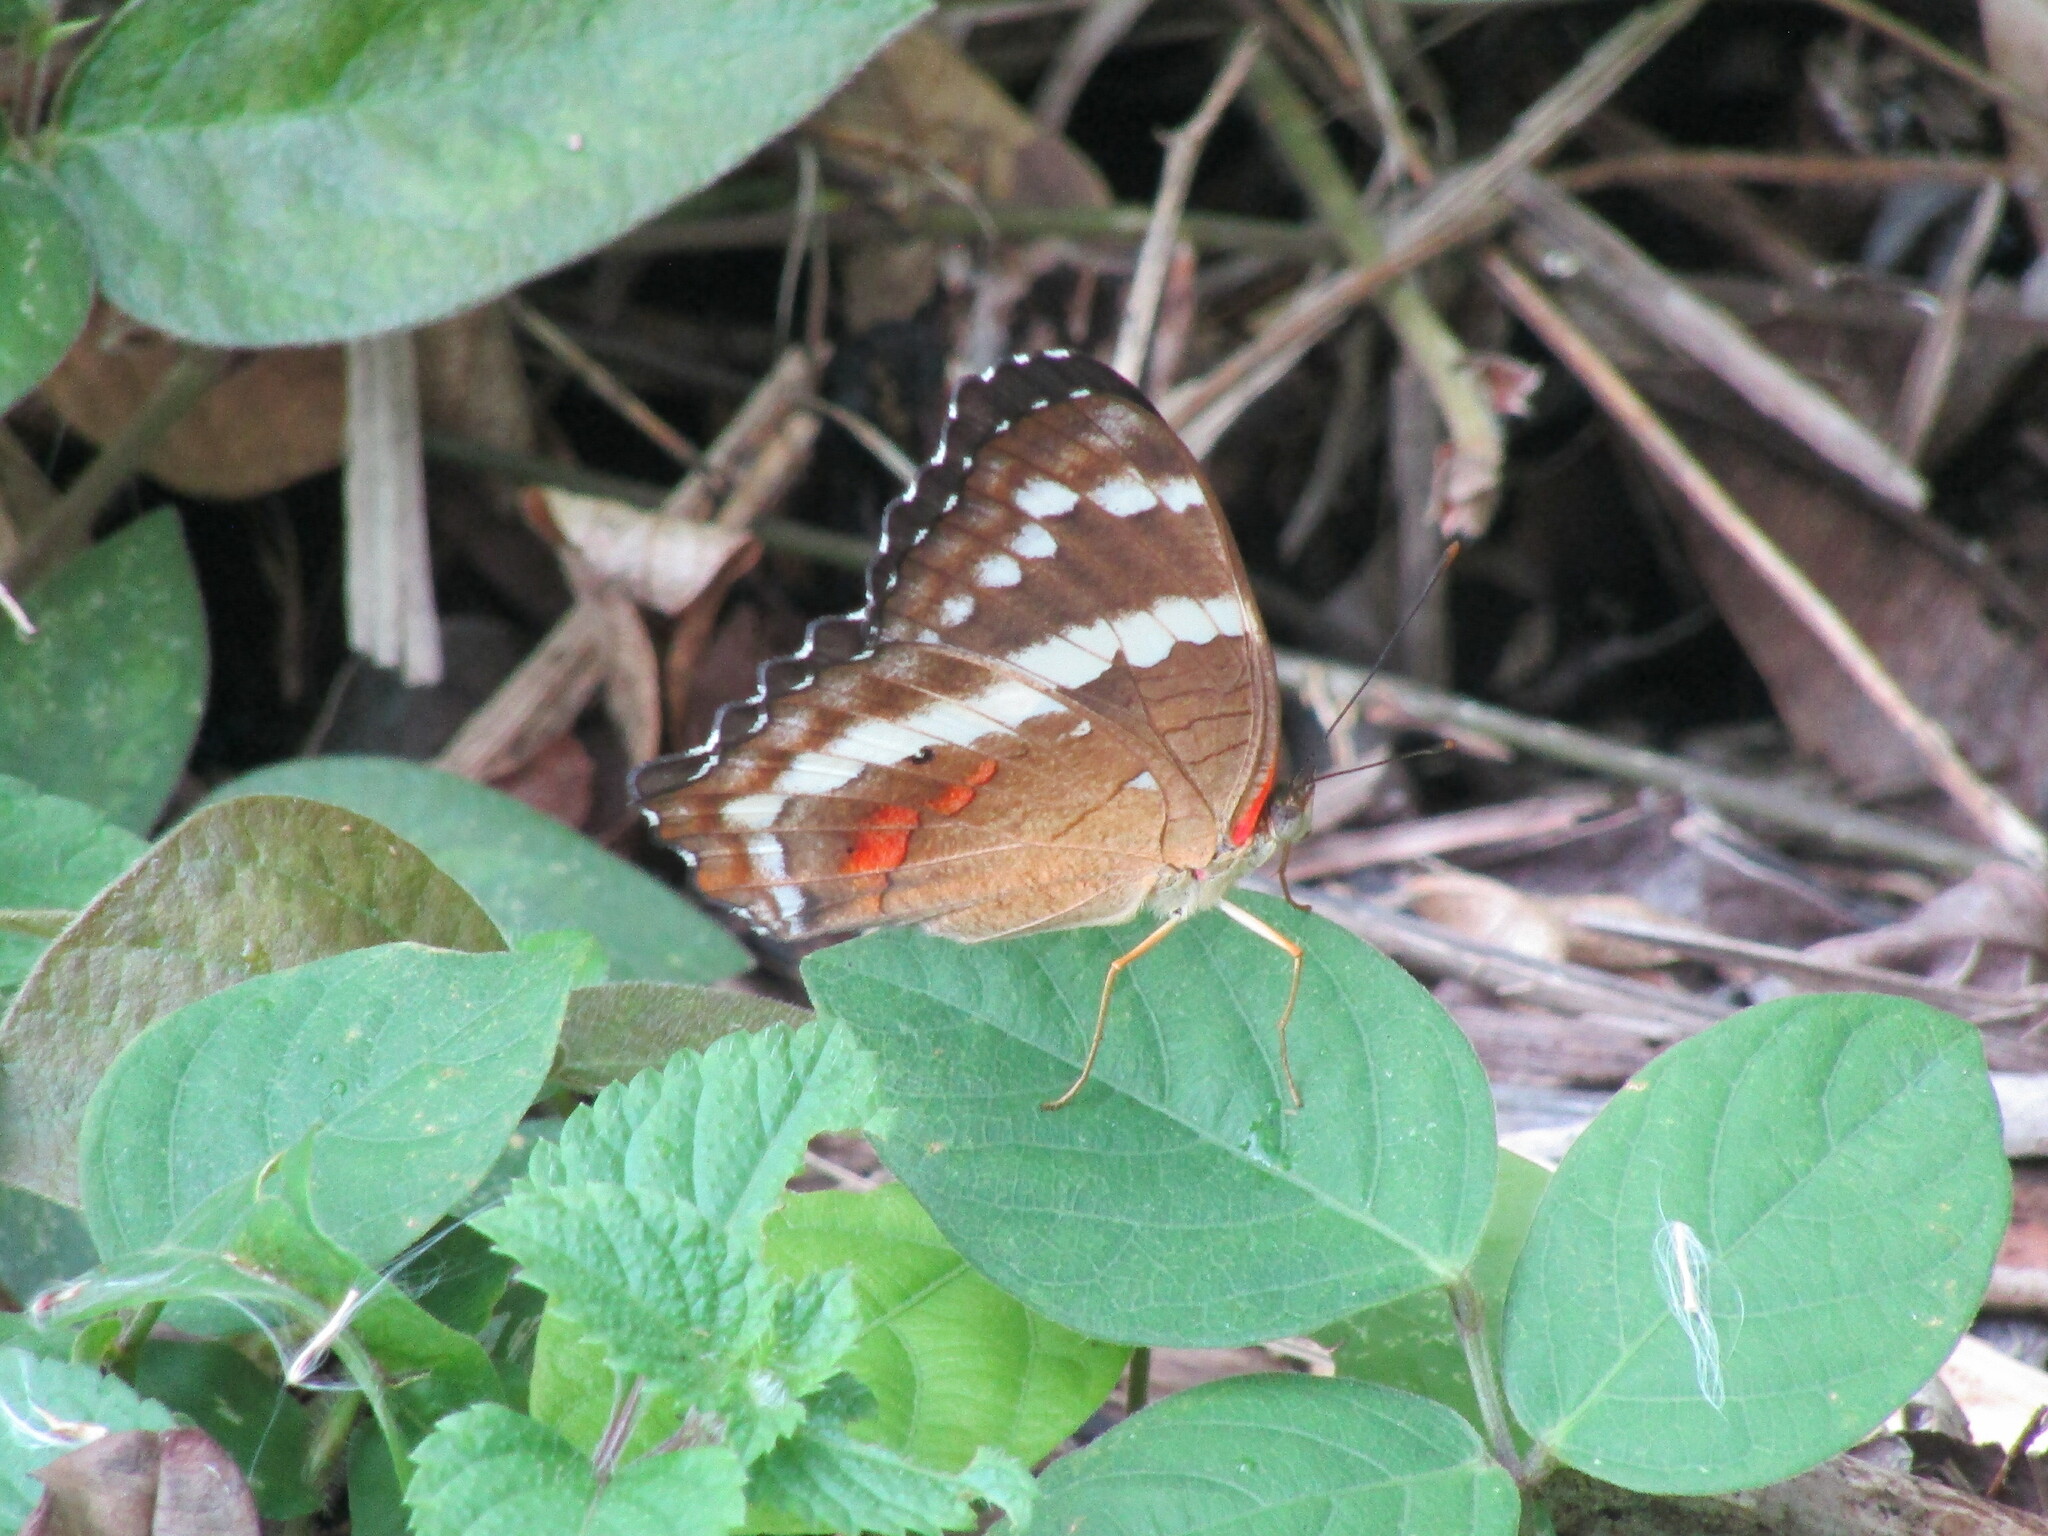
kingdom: Animalia
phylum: Arthropoda
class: Insecta
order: Lepidoptera
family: Nymphalidae
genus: Anartia
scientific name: Anartia fatima
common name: Banded peacock
